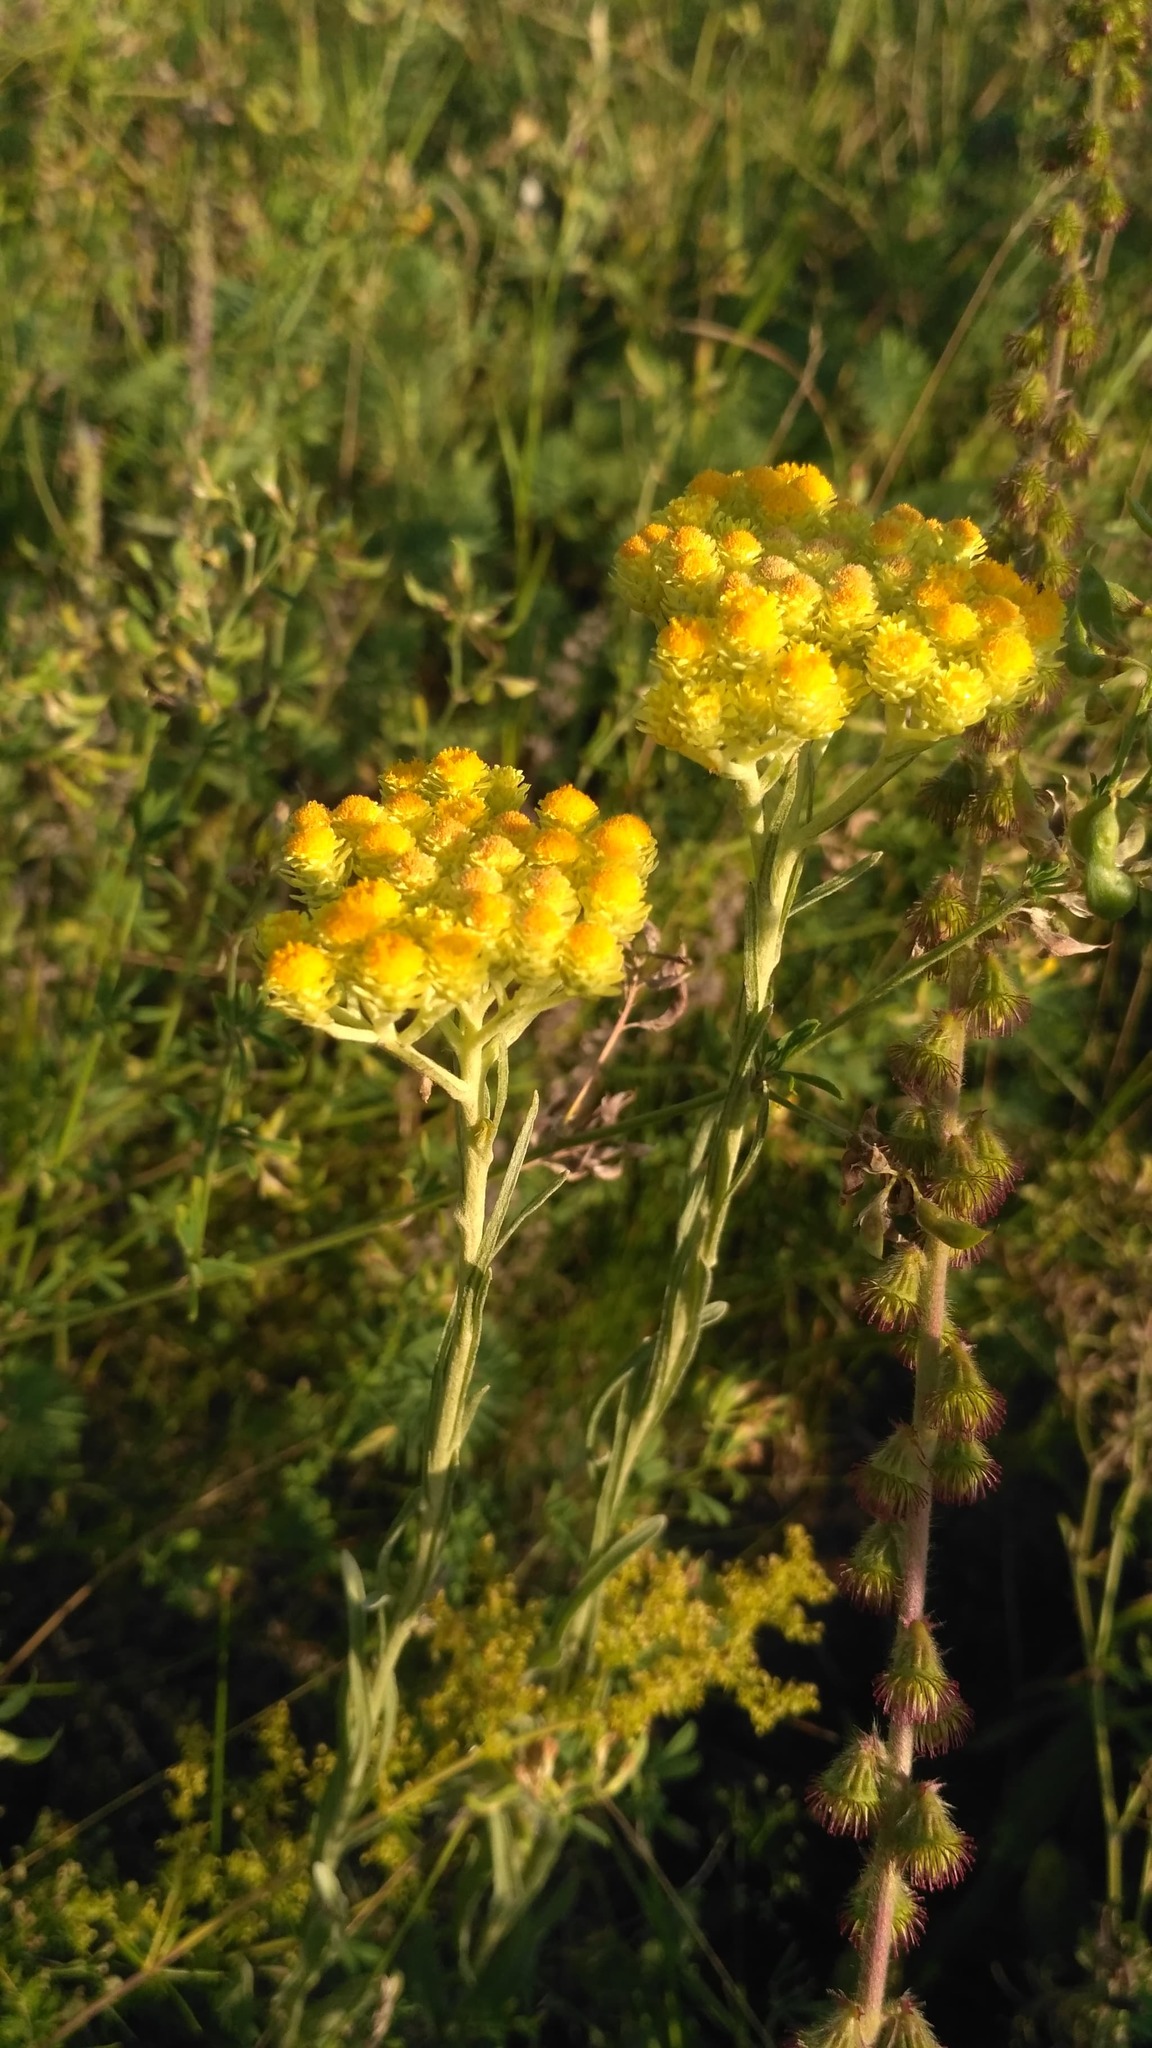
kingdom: Plantae
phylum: Tracheophyta
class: Magnoliopsida
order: Asterales
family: Asteraceae
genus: Helichrysum
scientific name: Helichrysum arenarium
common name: Strawflower
